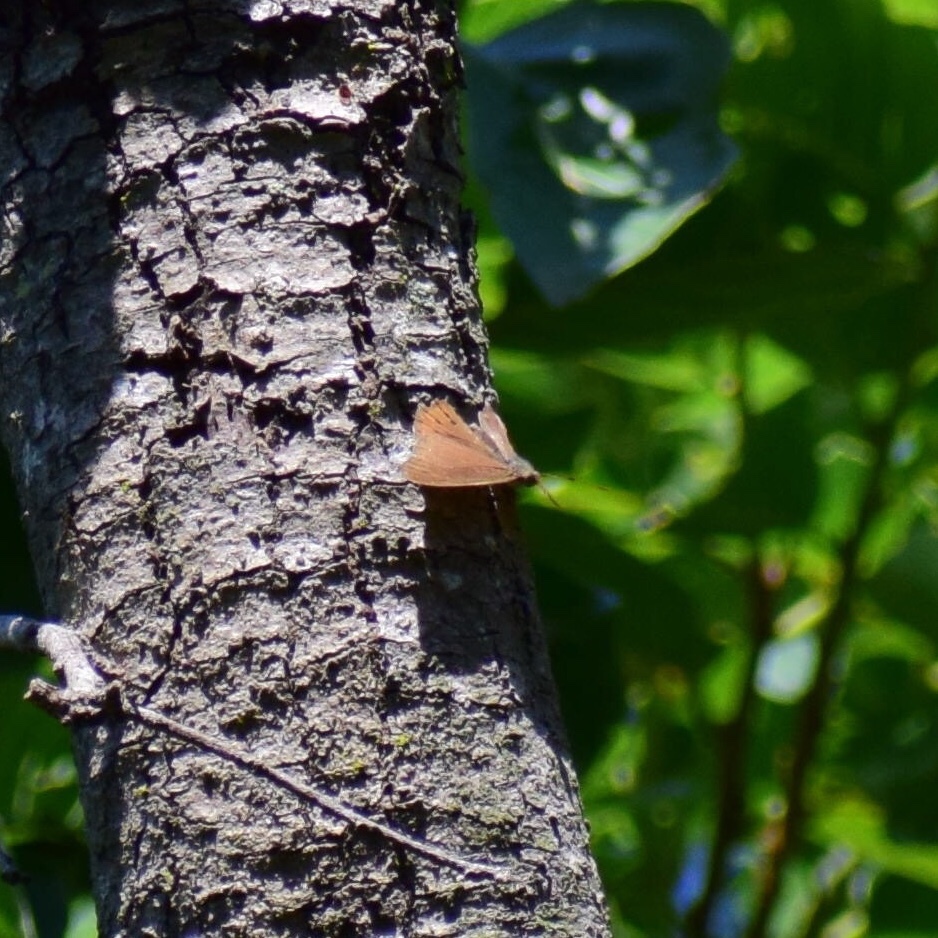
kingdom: Animalia
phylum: Arthropoda
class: Insecta
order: Lepidoptera
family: Nymphalidae
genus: Asterope
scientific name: Asterope boisduvali
